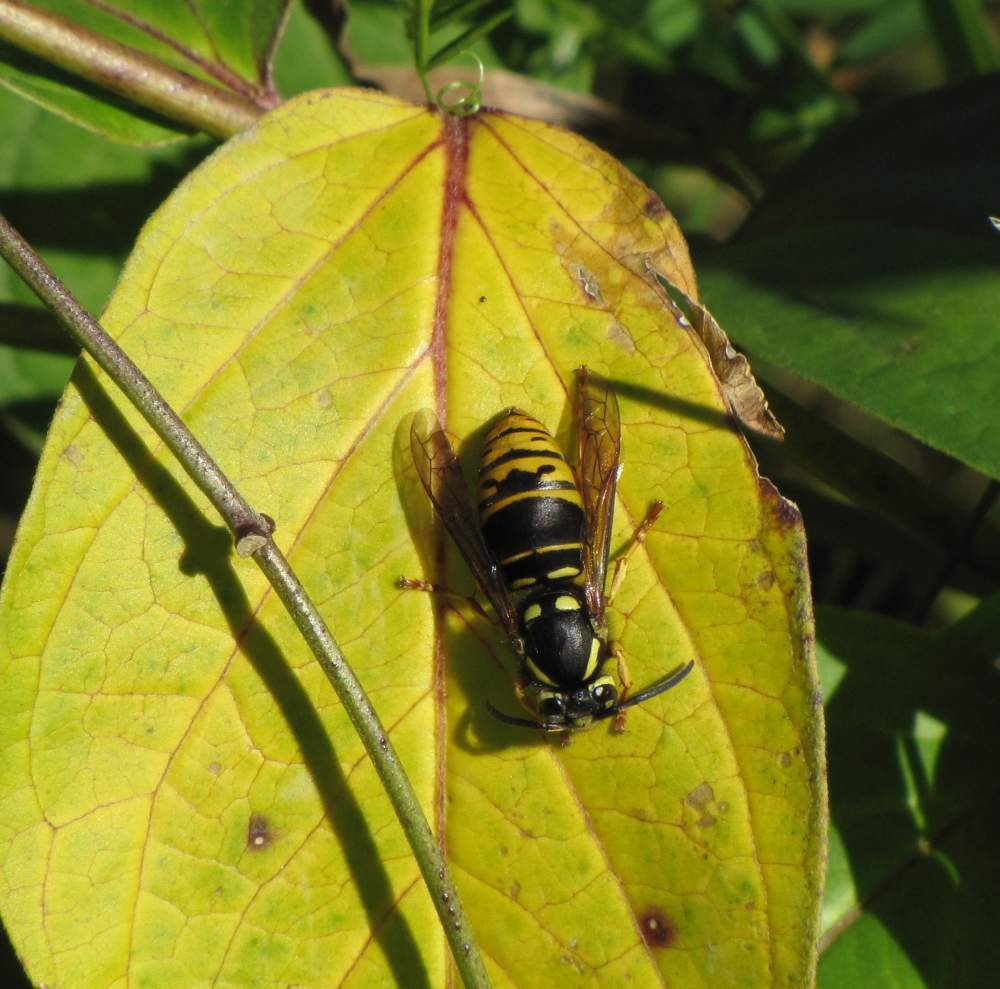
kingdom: Animalia
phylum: Arthropoda
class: Insecta
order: Hymenoptera
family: Vespidae
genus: Vespula
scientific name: Vespula vidua
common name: Widow yellowjacket
